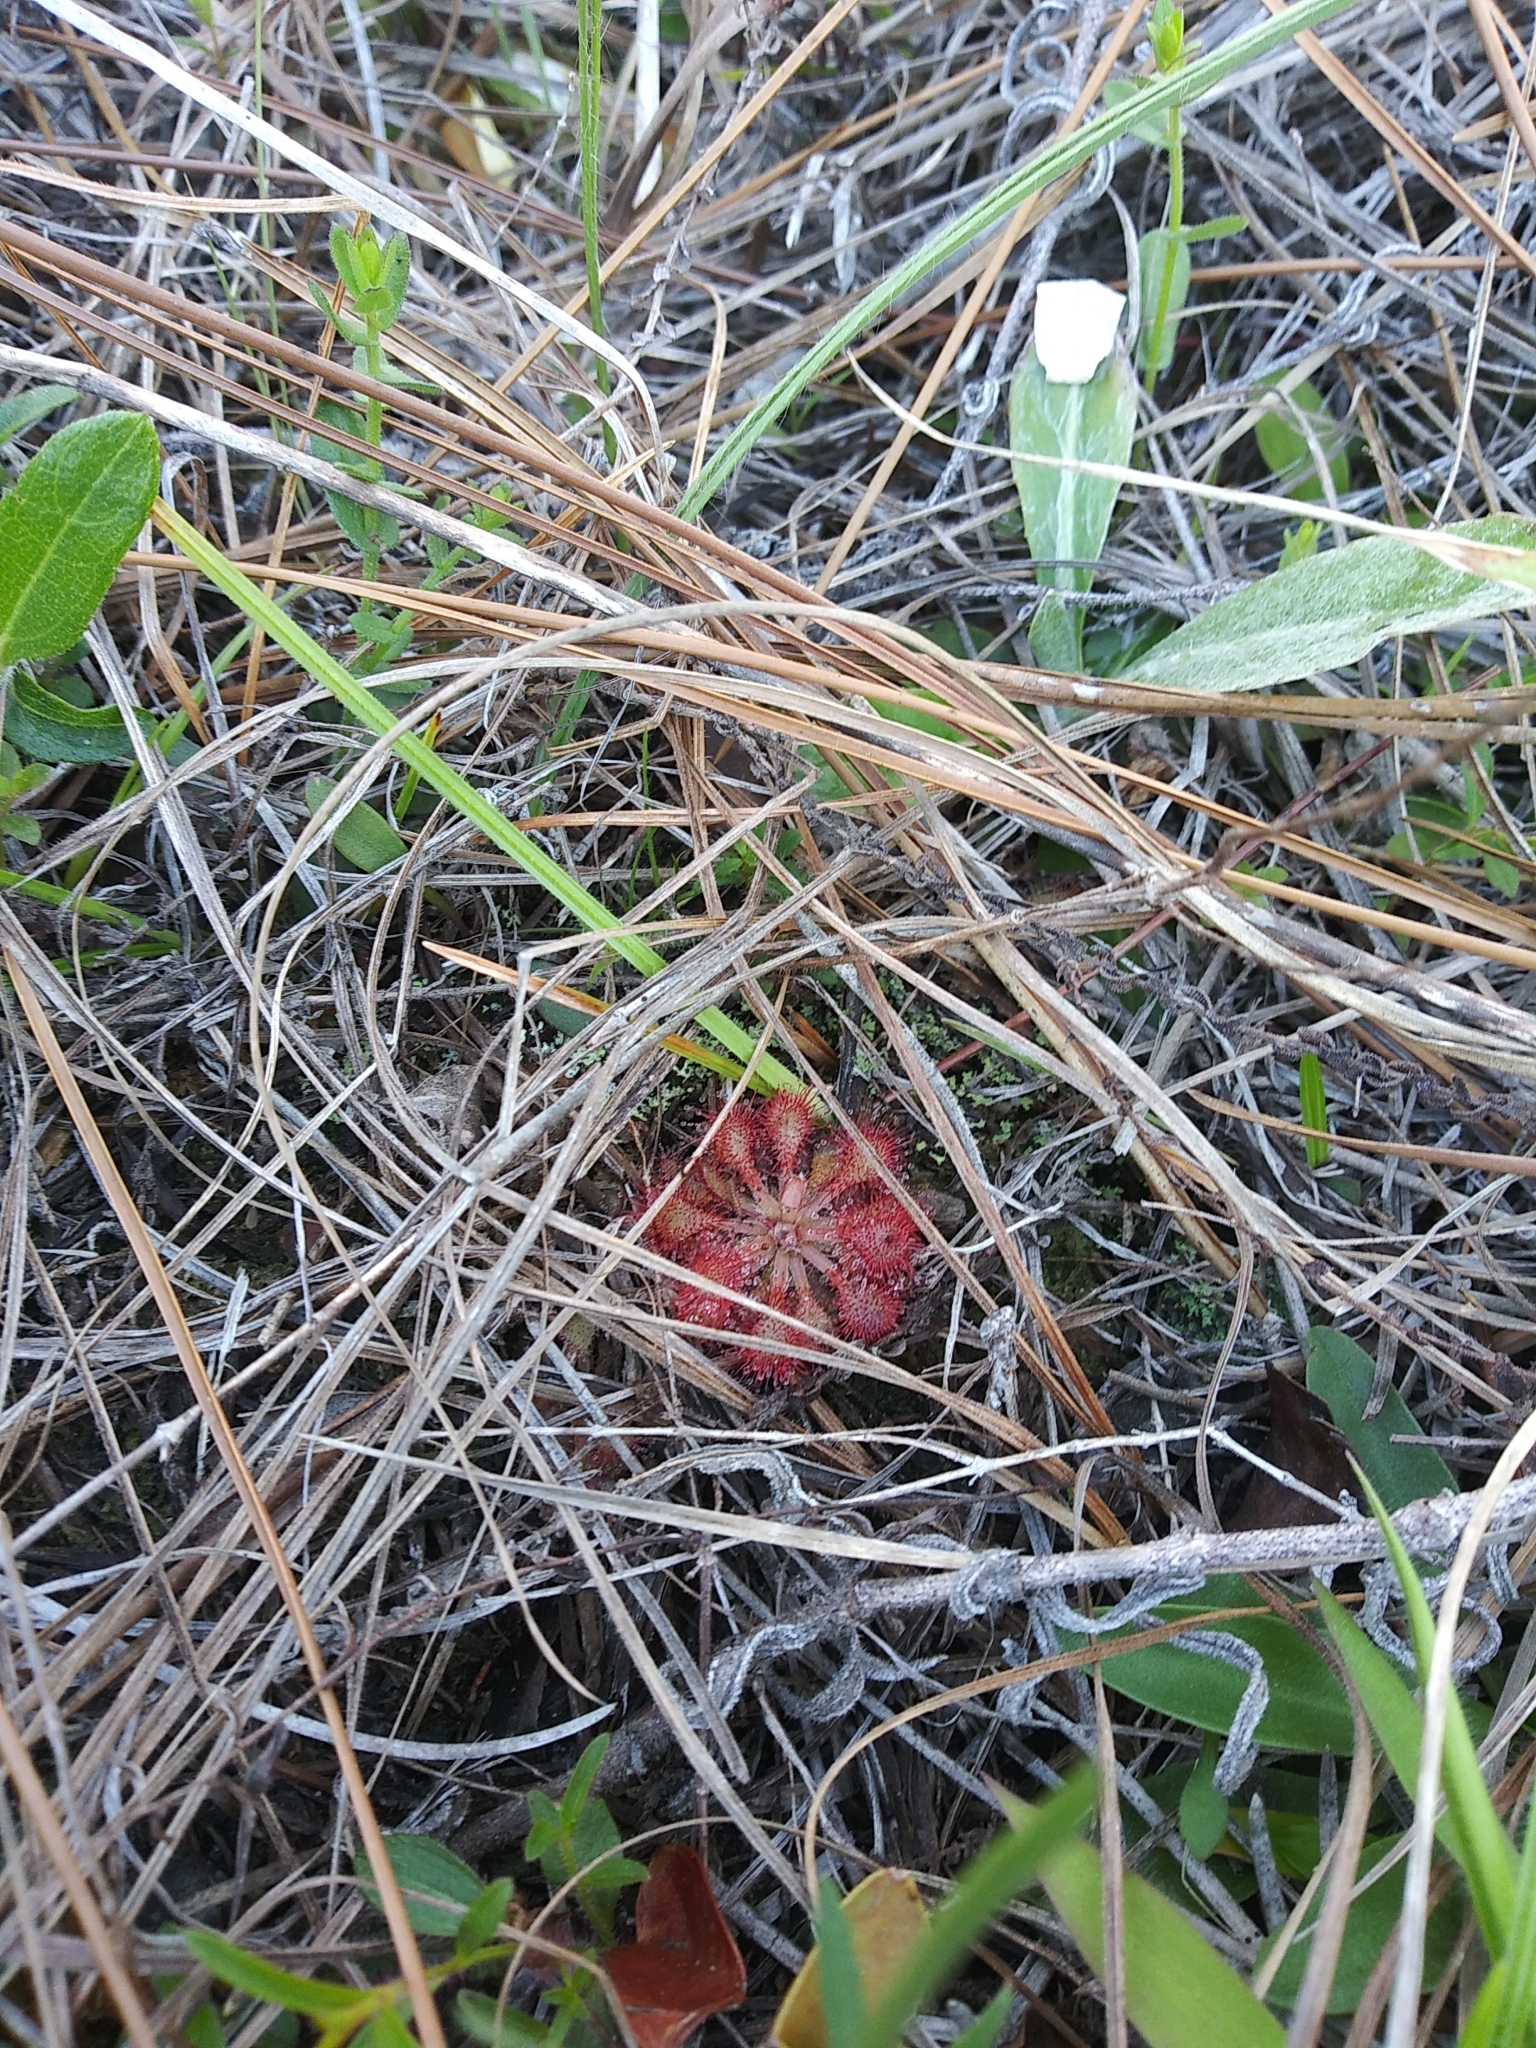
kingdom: Plantae
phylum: Tracheophyta
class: Magnoliopsida
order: Caryophyllales
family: Droseraceae
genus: Drosera
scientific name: Drosera capillaris
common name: Pink sundew
